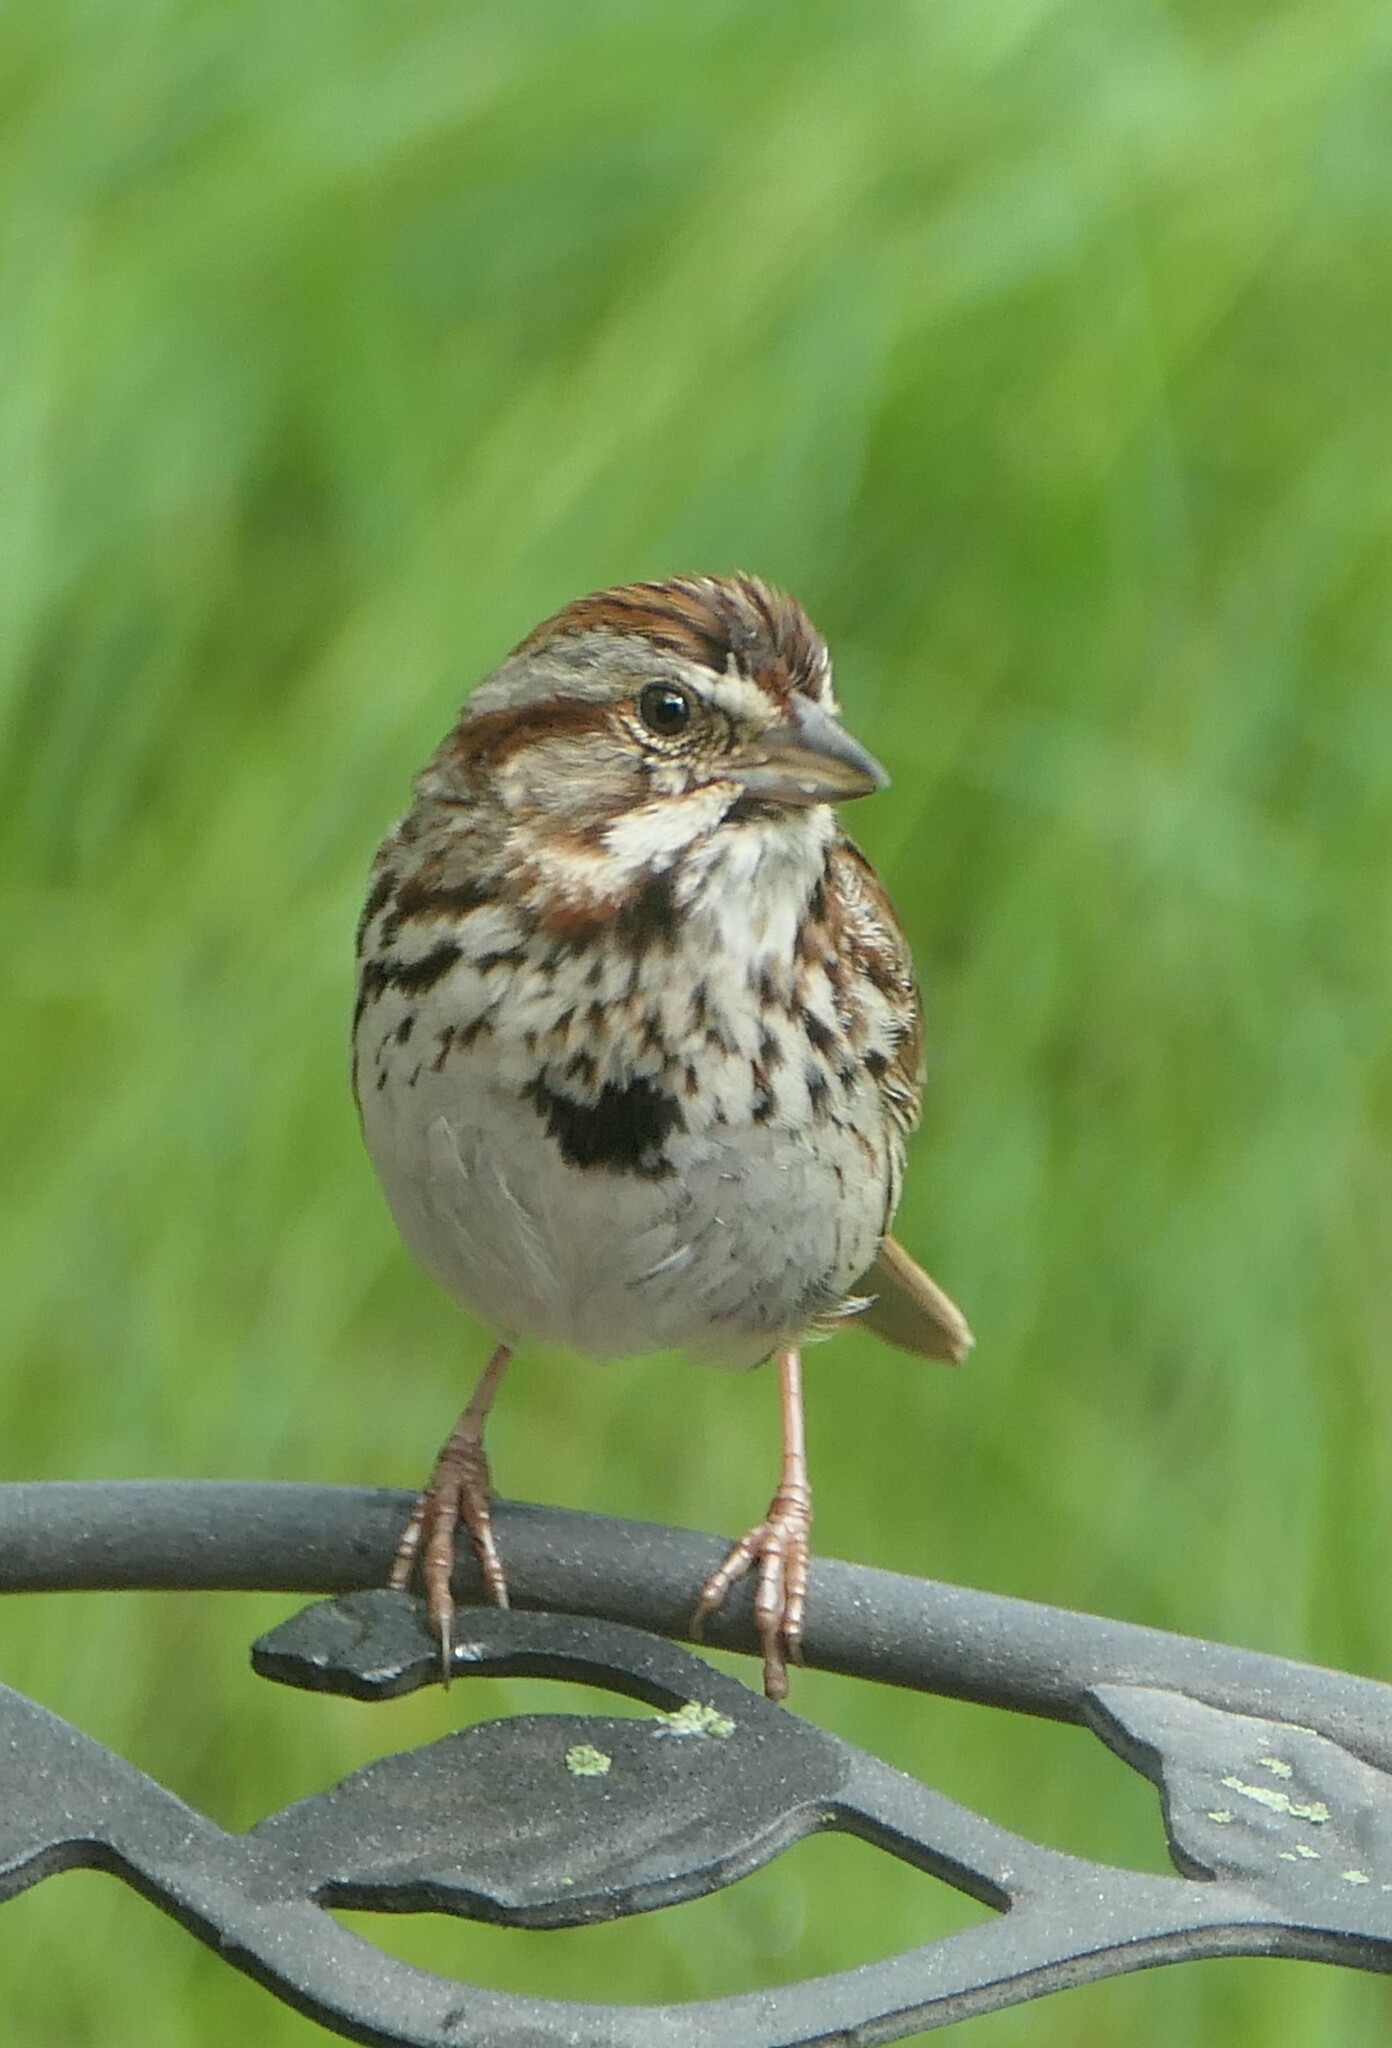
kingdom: Animalia
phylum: Chordata
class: Aves
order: Passeriformes
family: Passerellidae
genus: Melospiza
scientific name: Melospiza melodia
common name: Song sparrow
